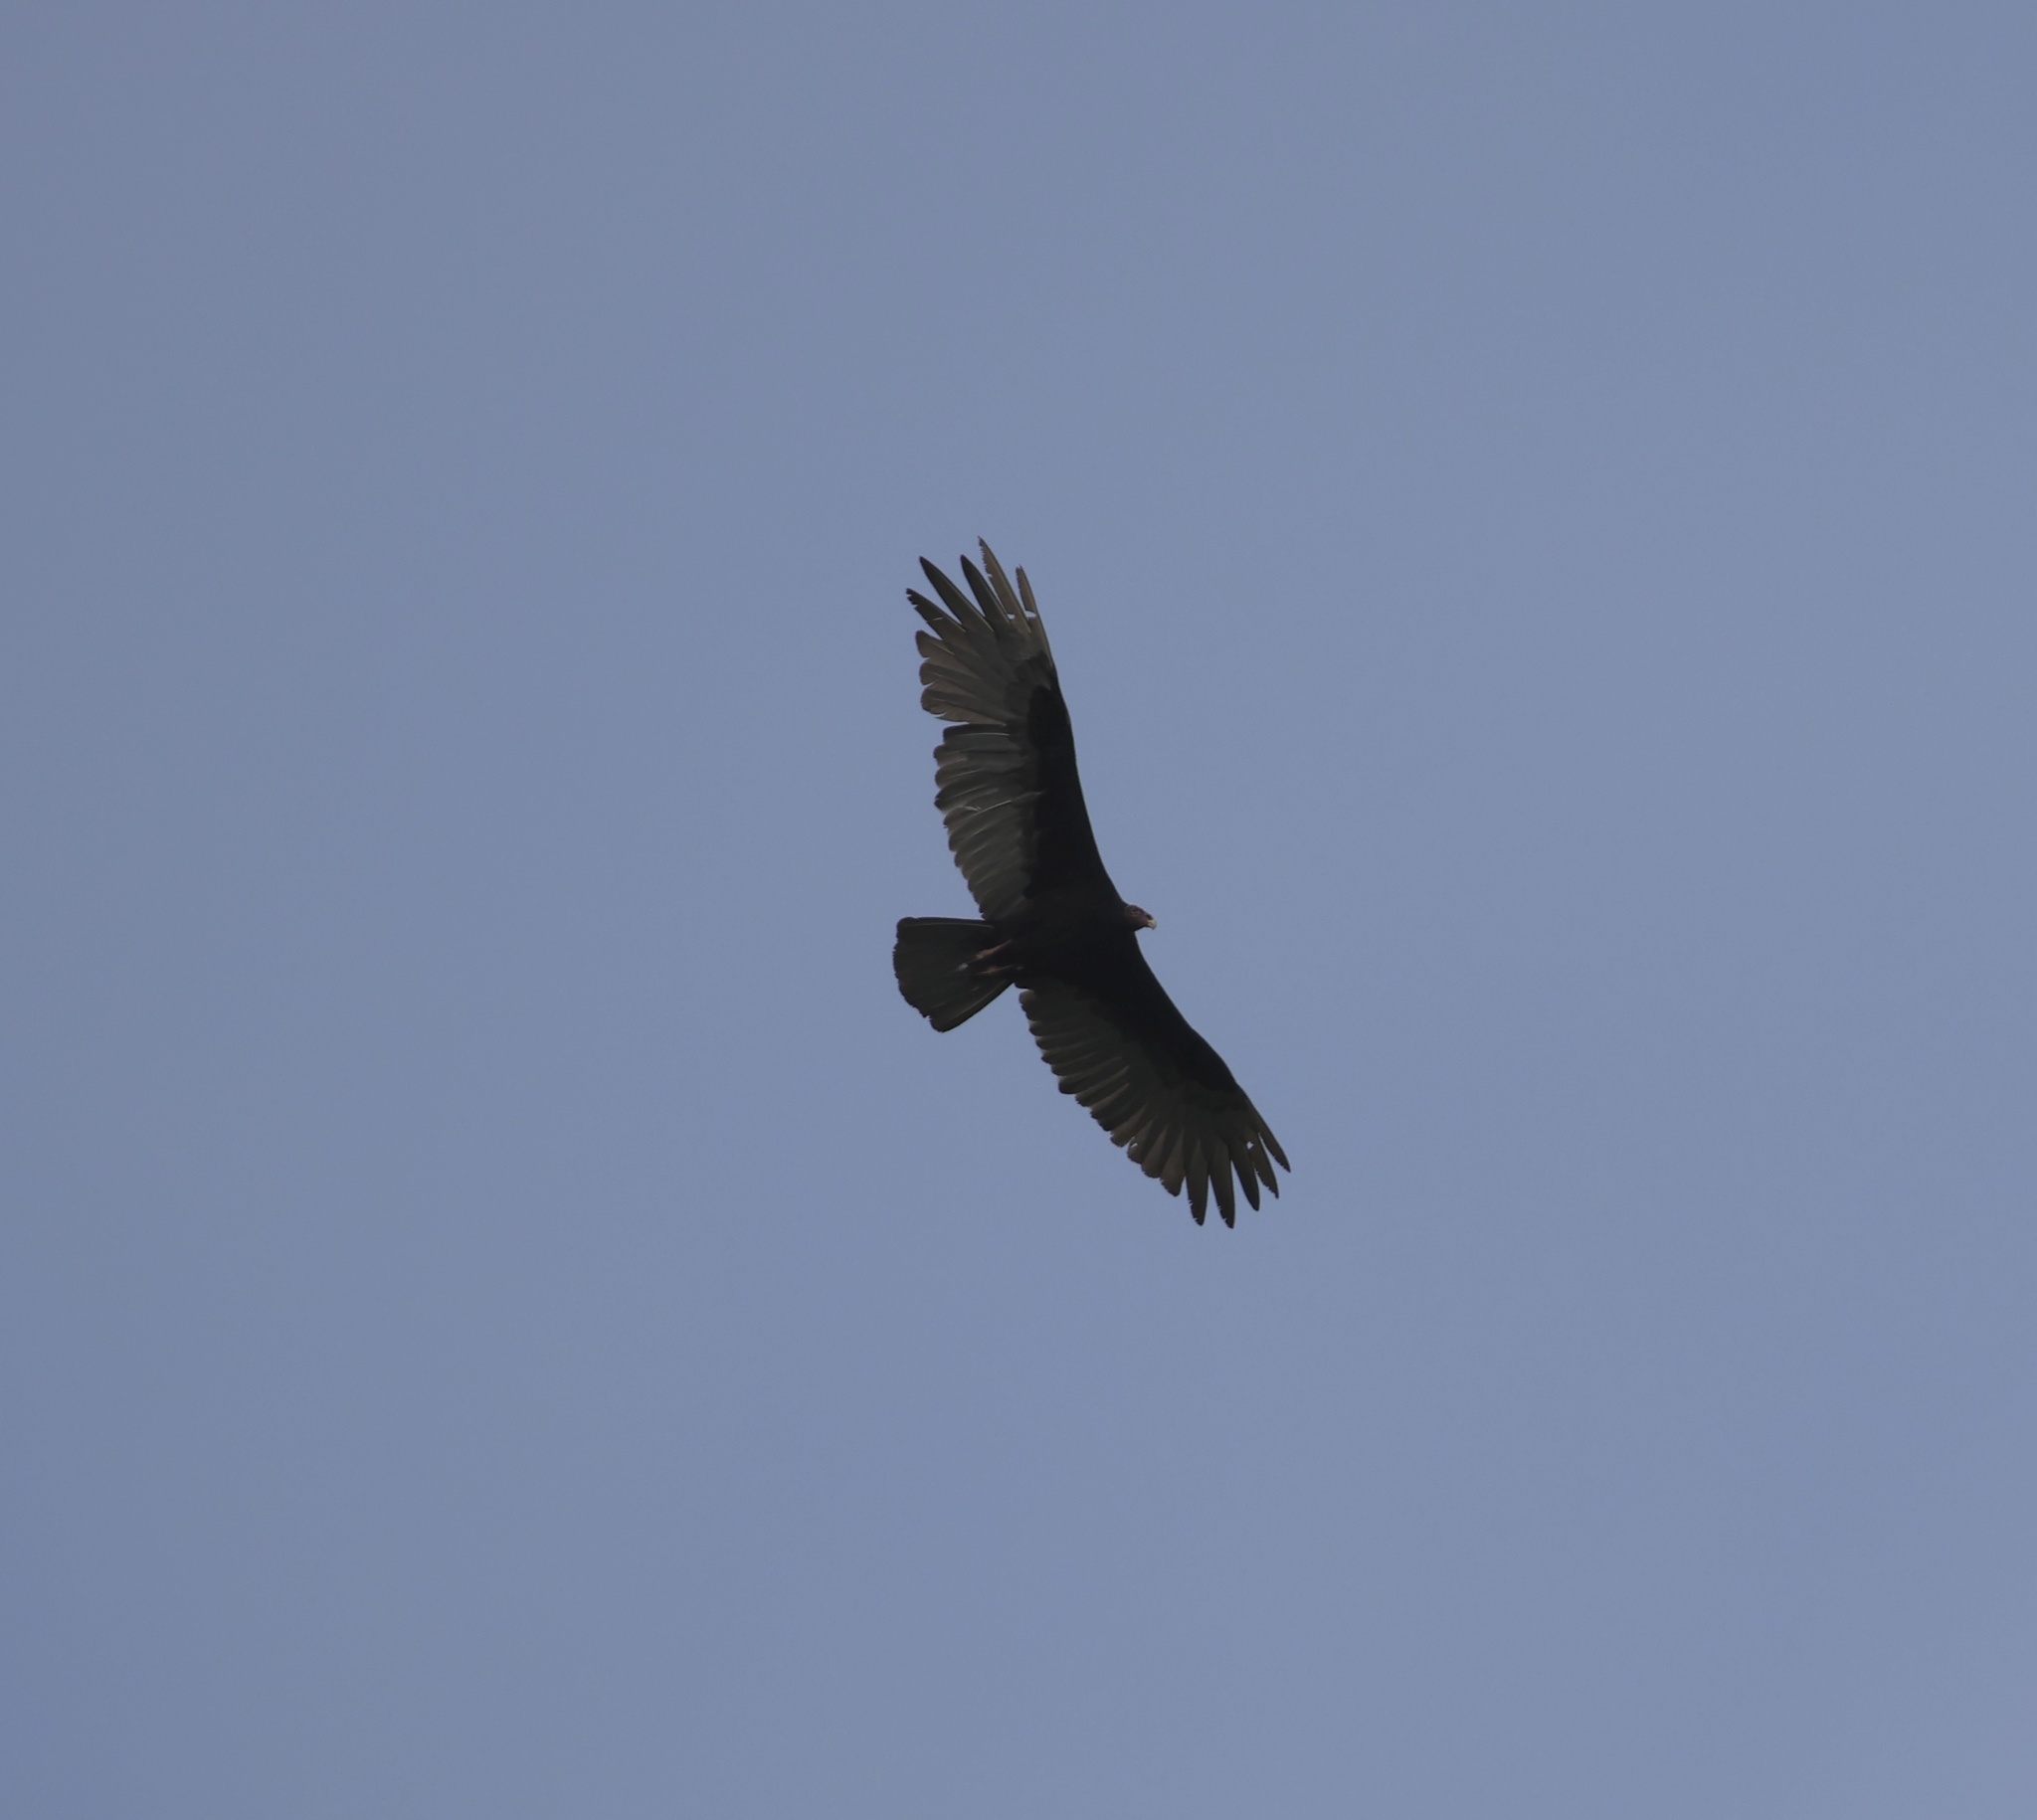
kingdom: Animalia
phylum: Chordata
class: Aves
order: Accipitriformes
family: Cathartidae
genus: Cathartes
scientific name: Cathartes aura
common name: Turkey vulture
